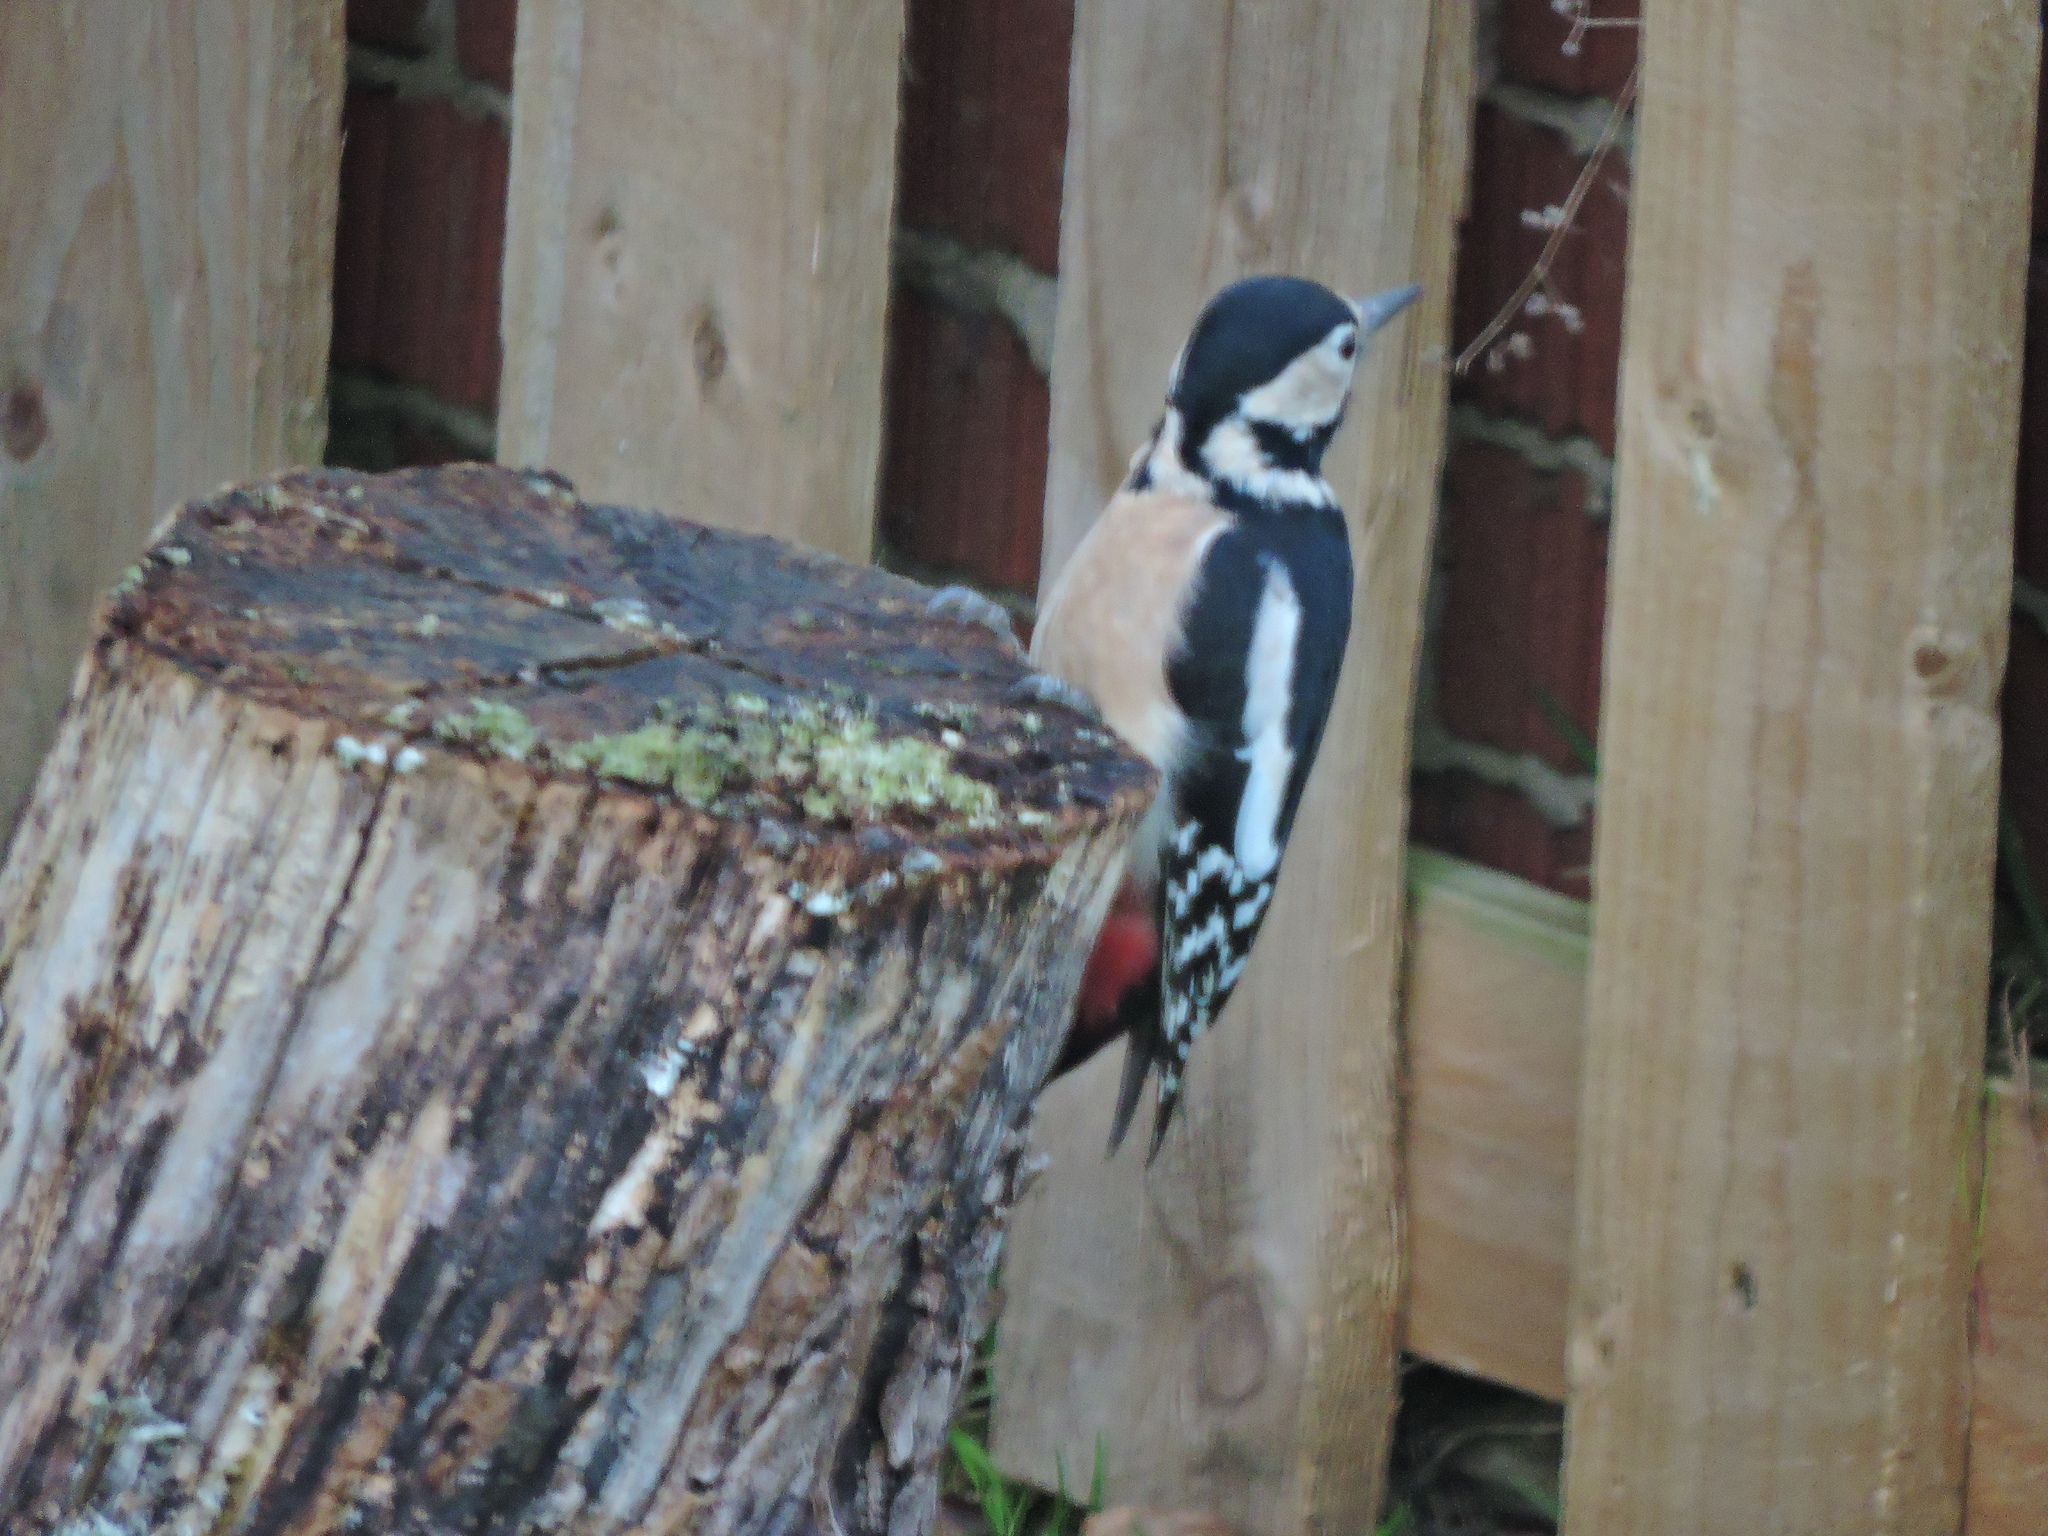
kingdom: Animalia
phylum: Chordata
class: Aves
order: Piciformes
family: Picidae
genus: Dendrocopos
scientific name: Dendrocopos major
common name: Great spotted woodpecker
